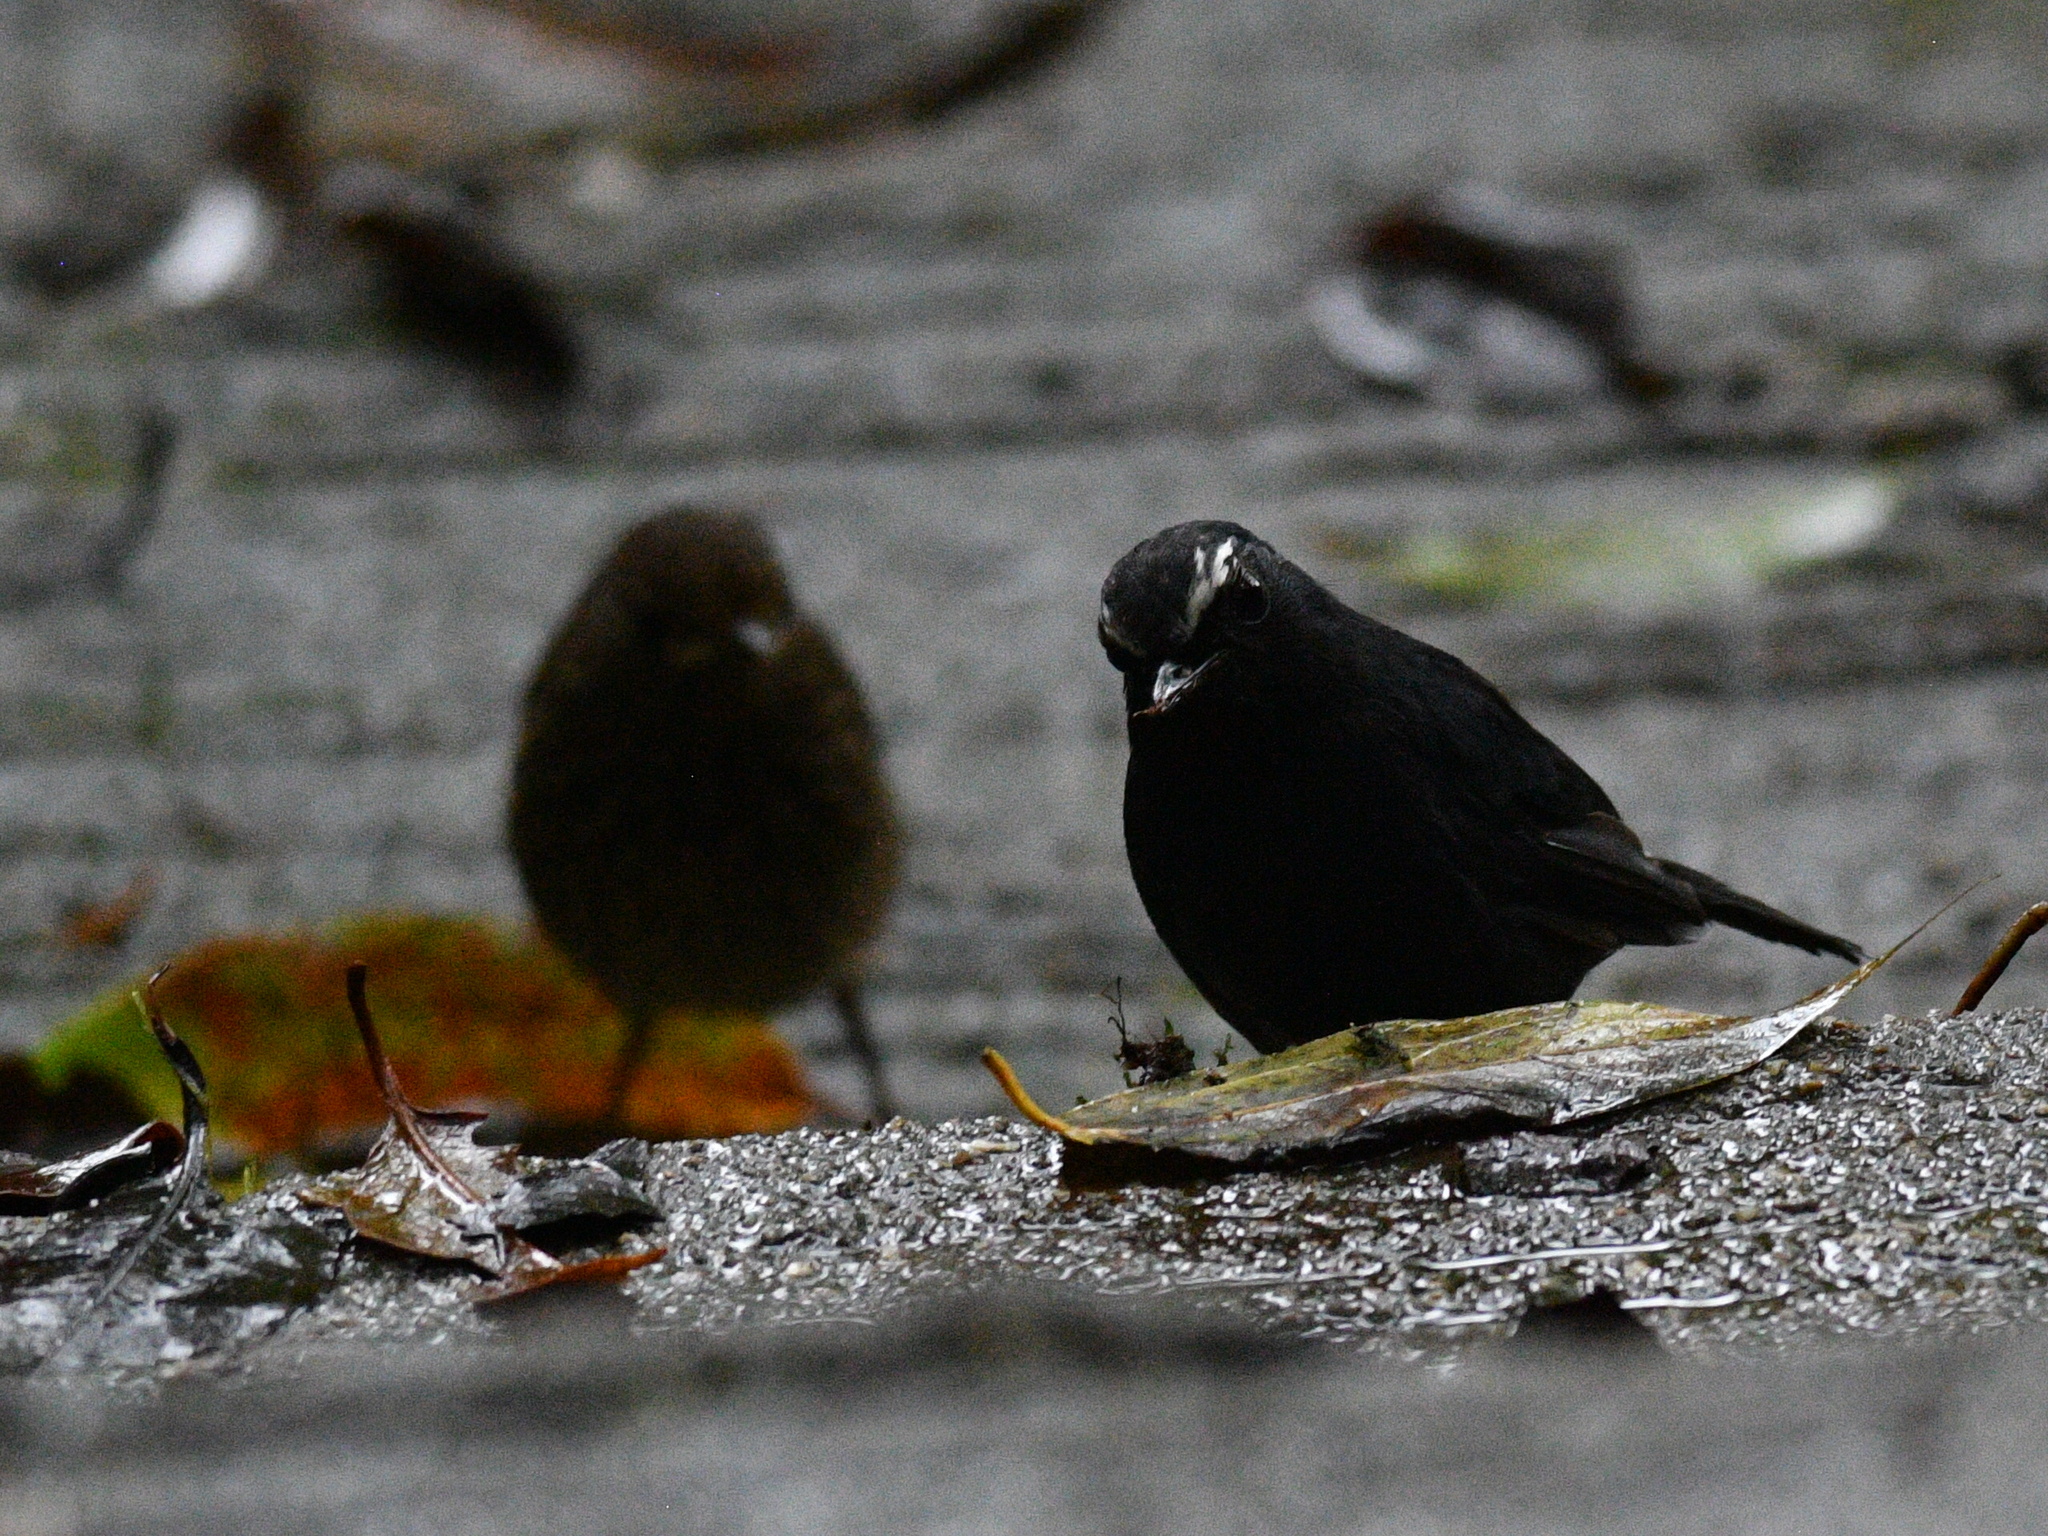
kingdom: Animalia
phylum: Chordata
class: Aves
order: Passeriformes
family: Muscicapidae
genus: Brachypteryx
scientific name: Brachypteryx montana
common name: White-browed shortwing
